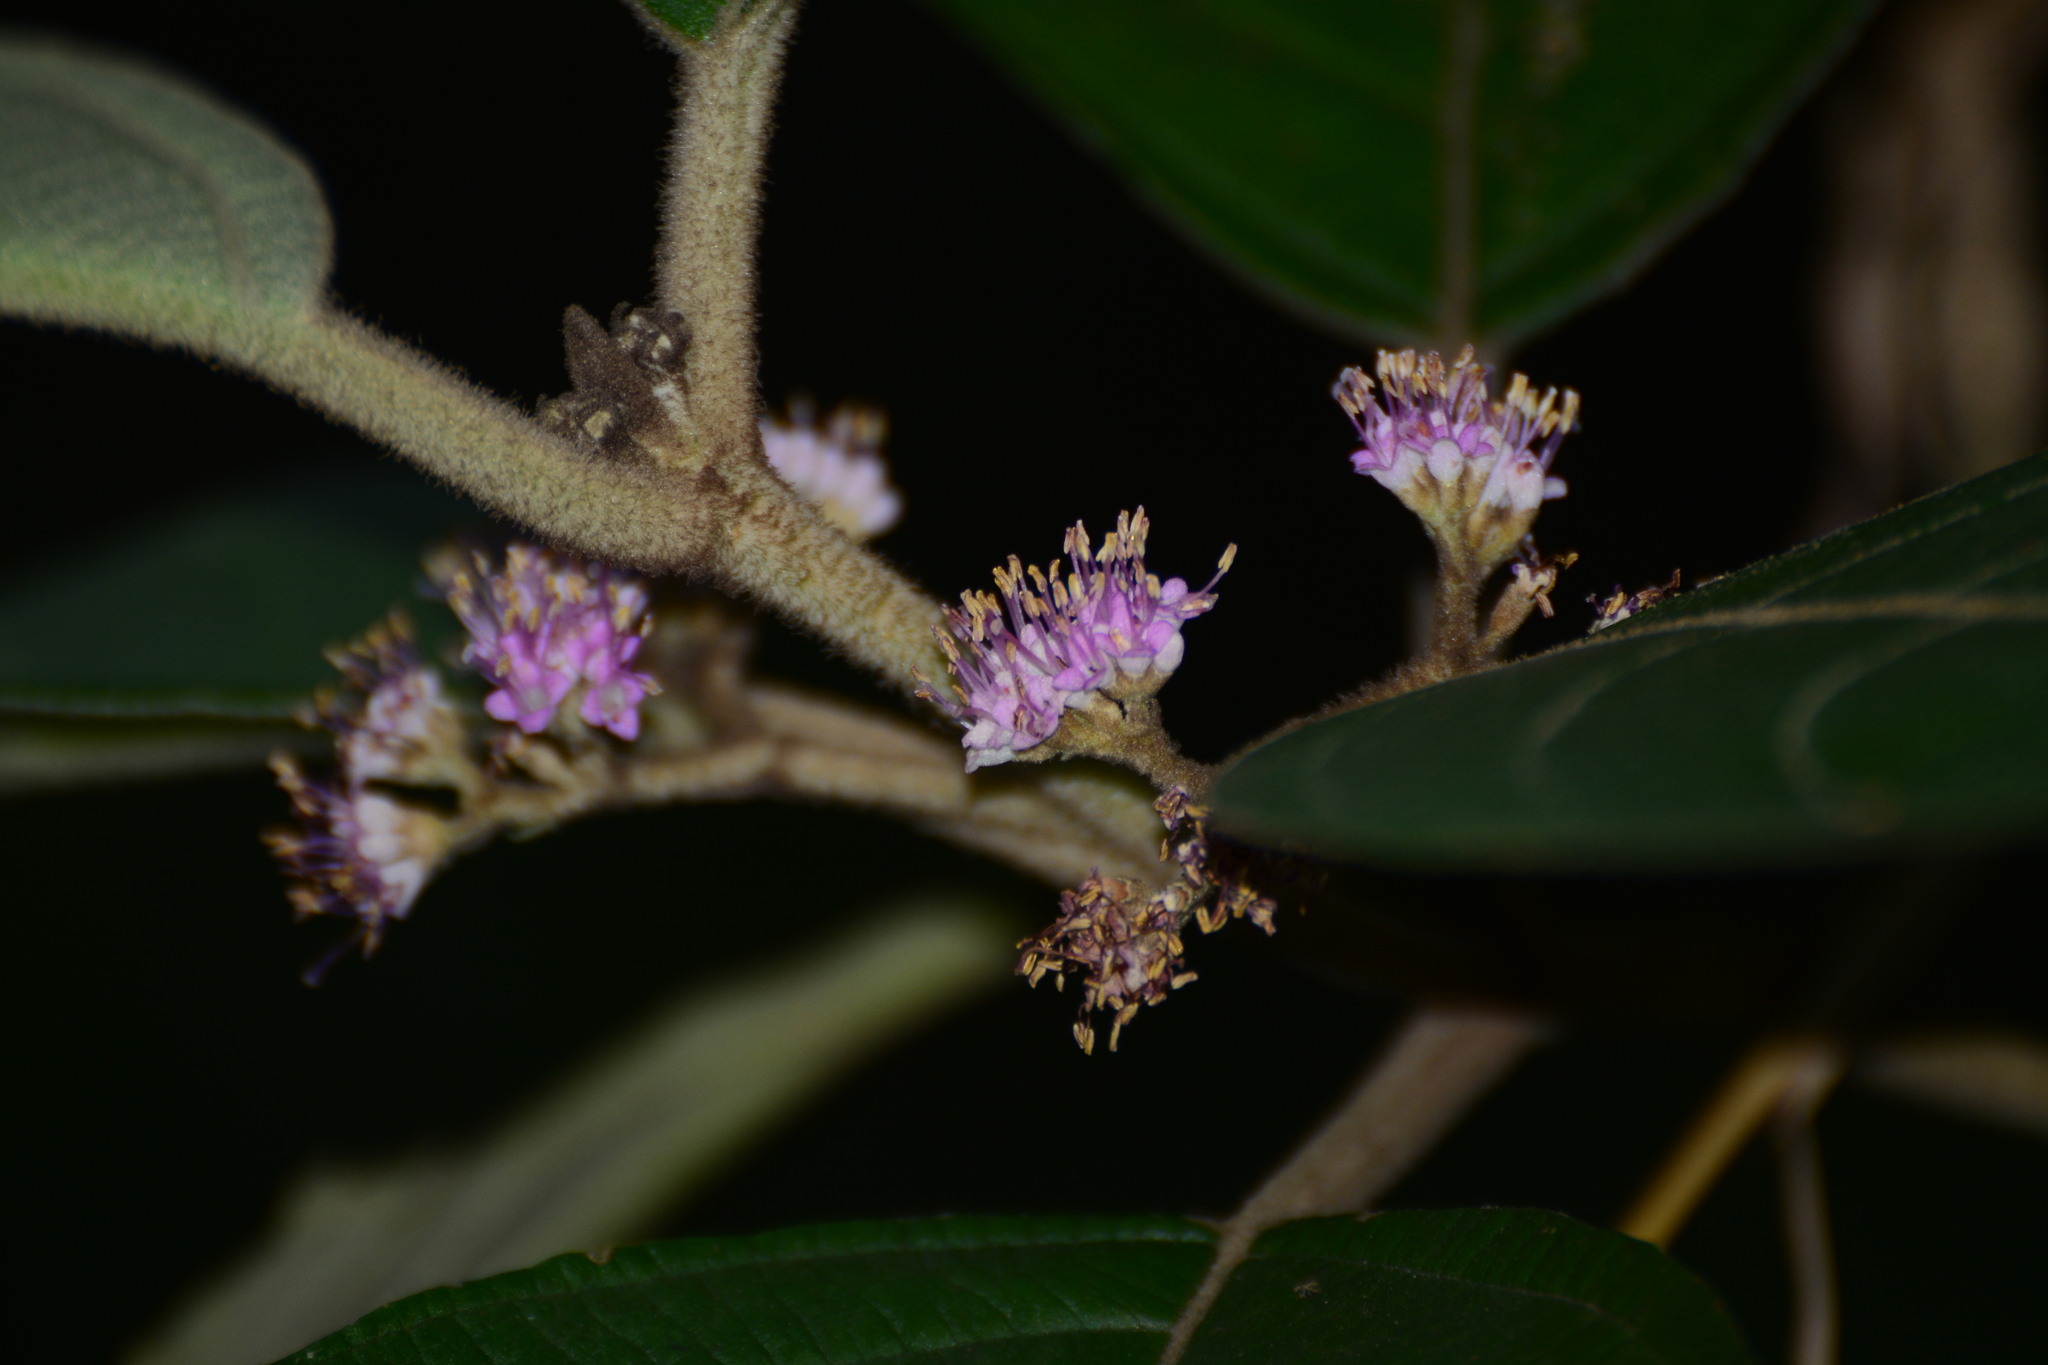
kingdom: Plantae
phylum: Tracheophyta
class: Magnoliopsida
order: Lamiales
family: Lamiaceae
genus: Callicarpa
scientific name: Callicarpa tomentosa
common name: Great woolly malayan-lilac
